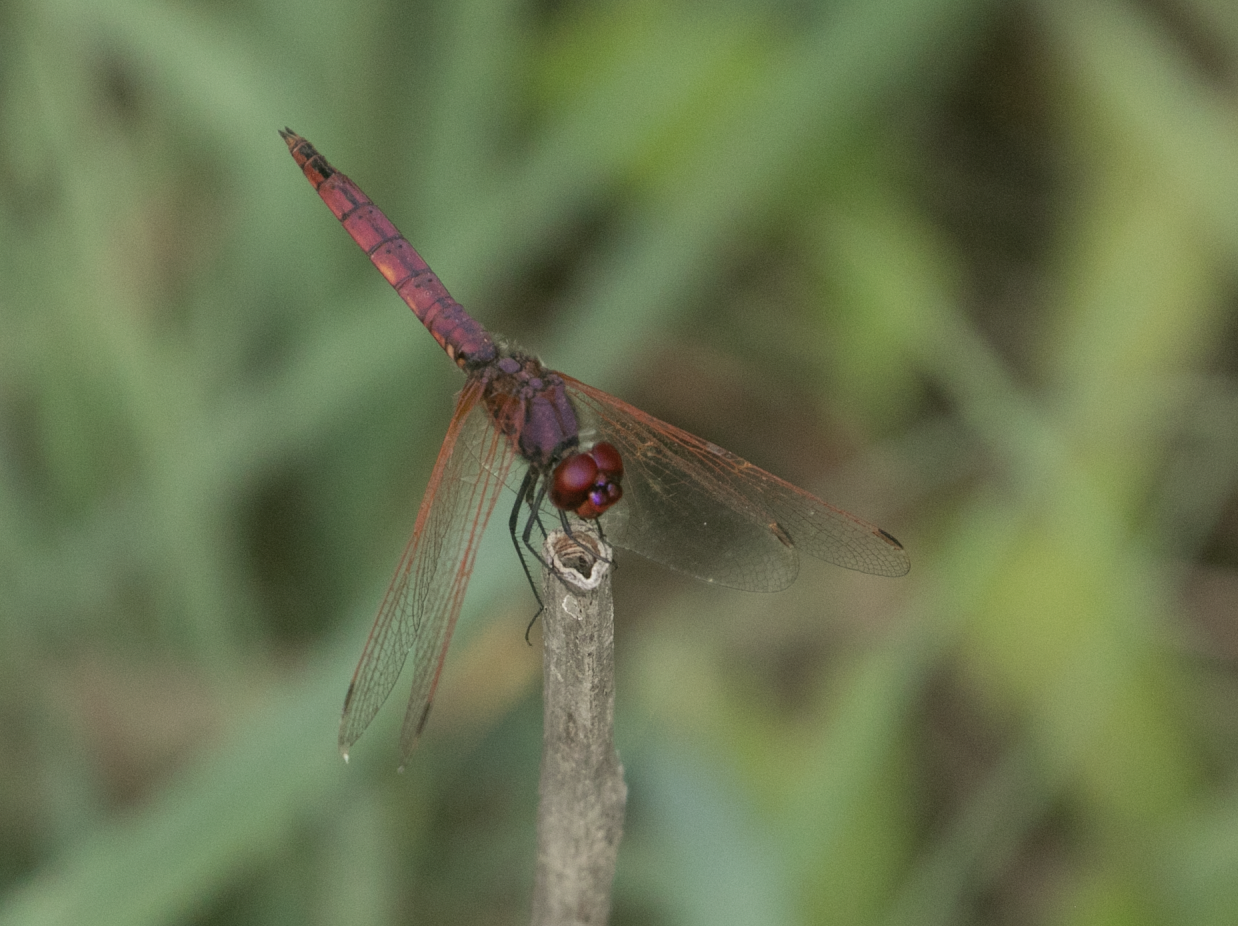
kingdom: Animalia
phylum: Arthropoda
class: Insecta
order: Odonata
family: Libellulidae
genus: Trithemis
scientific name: Trithemis annulata
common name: Violet dropwing
